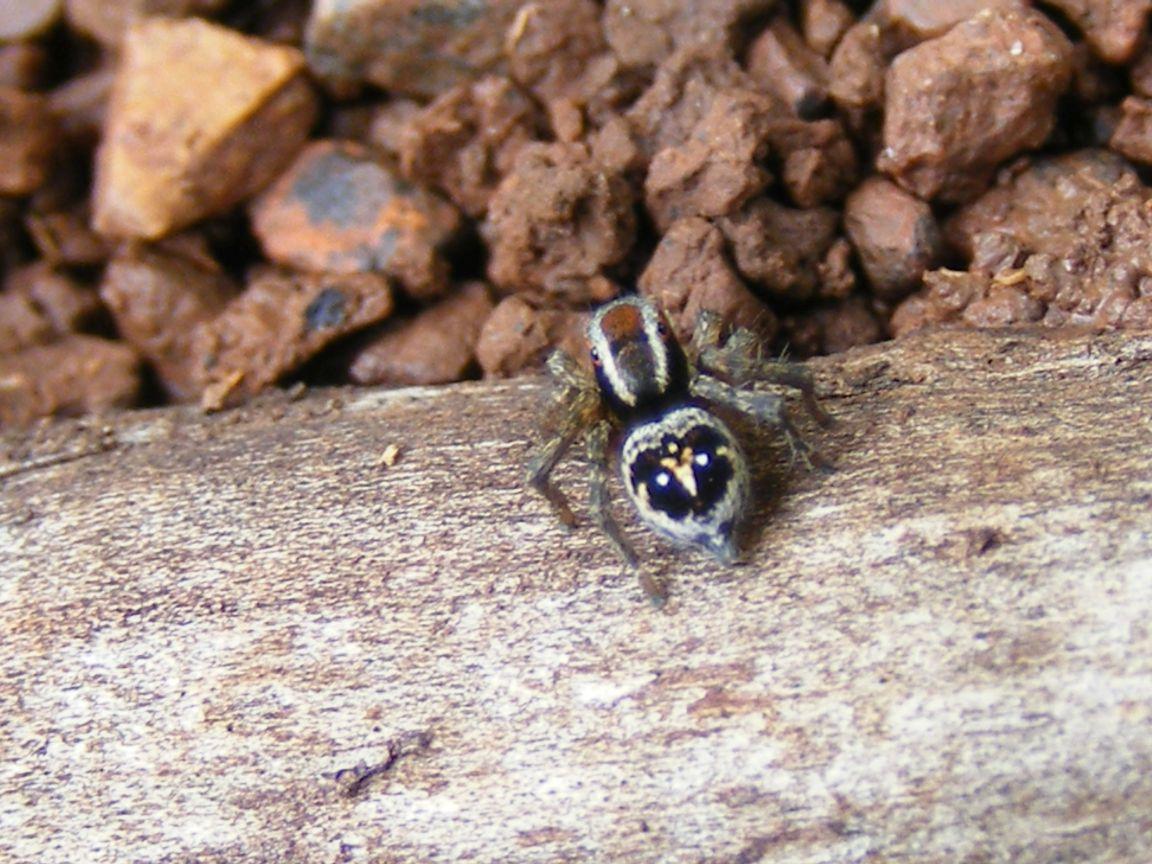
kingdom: Animalia
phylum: Arthropoda
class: Arachnida
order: Araneae
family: Salticidae
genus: Stenaelurillus
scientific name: Stenaelurillus guttiger
